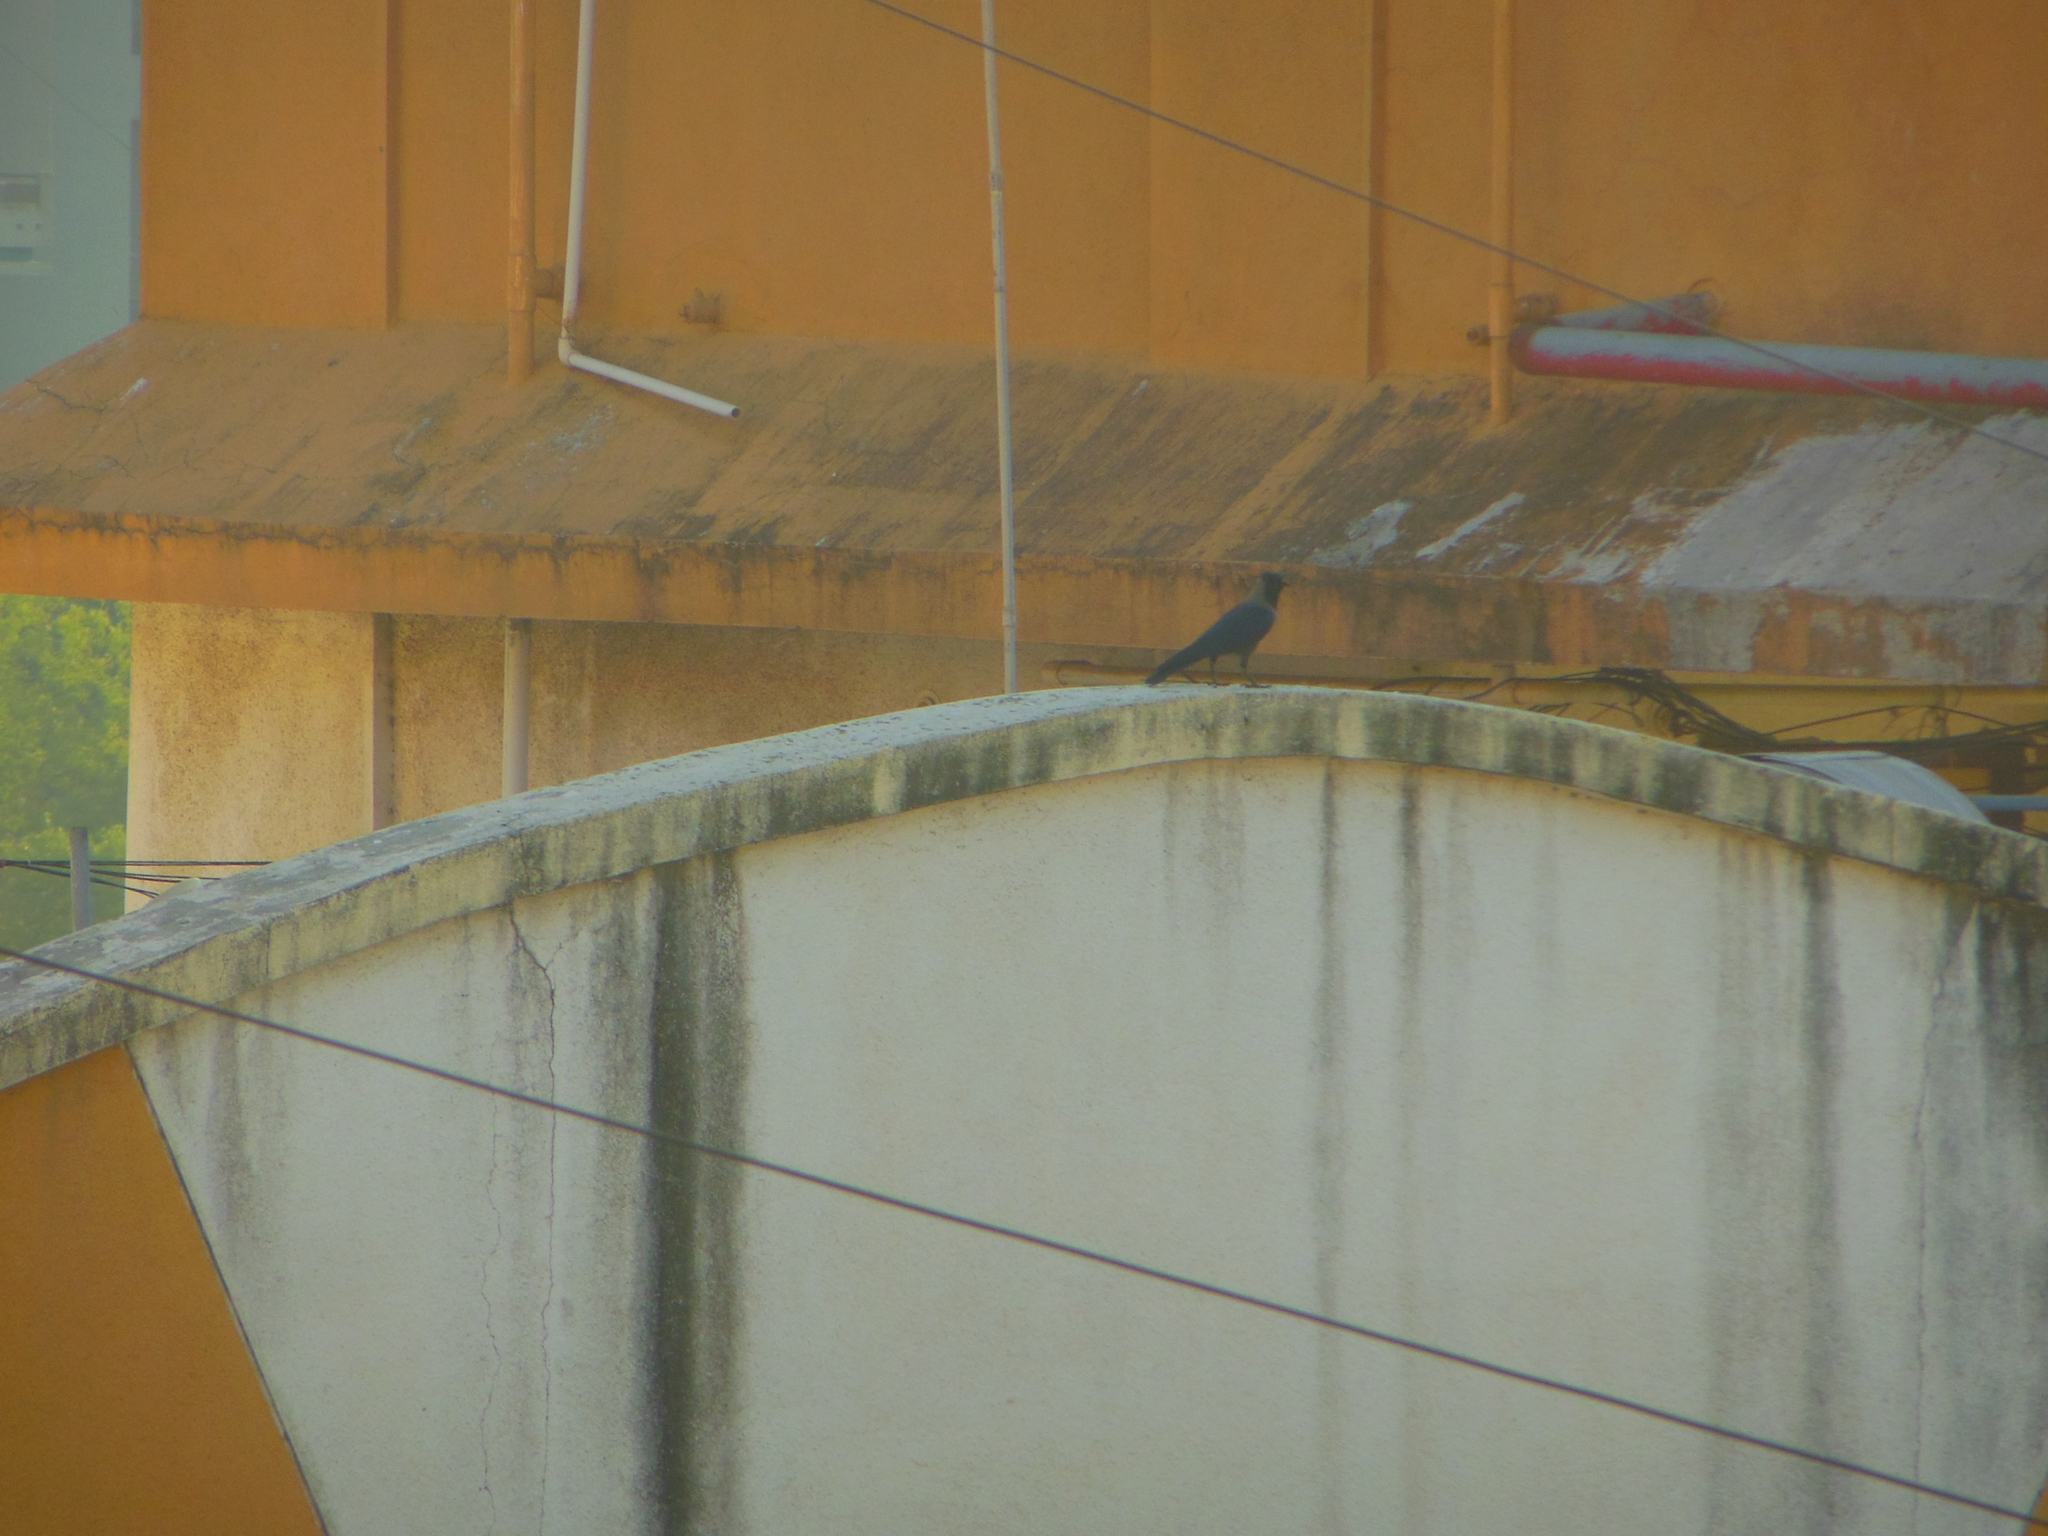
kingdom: Animalia
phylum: Chordata
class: Aves
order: Passeriformes
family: Corvidae
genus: Corvus
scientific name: Corvus splendens
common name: House crow
